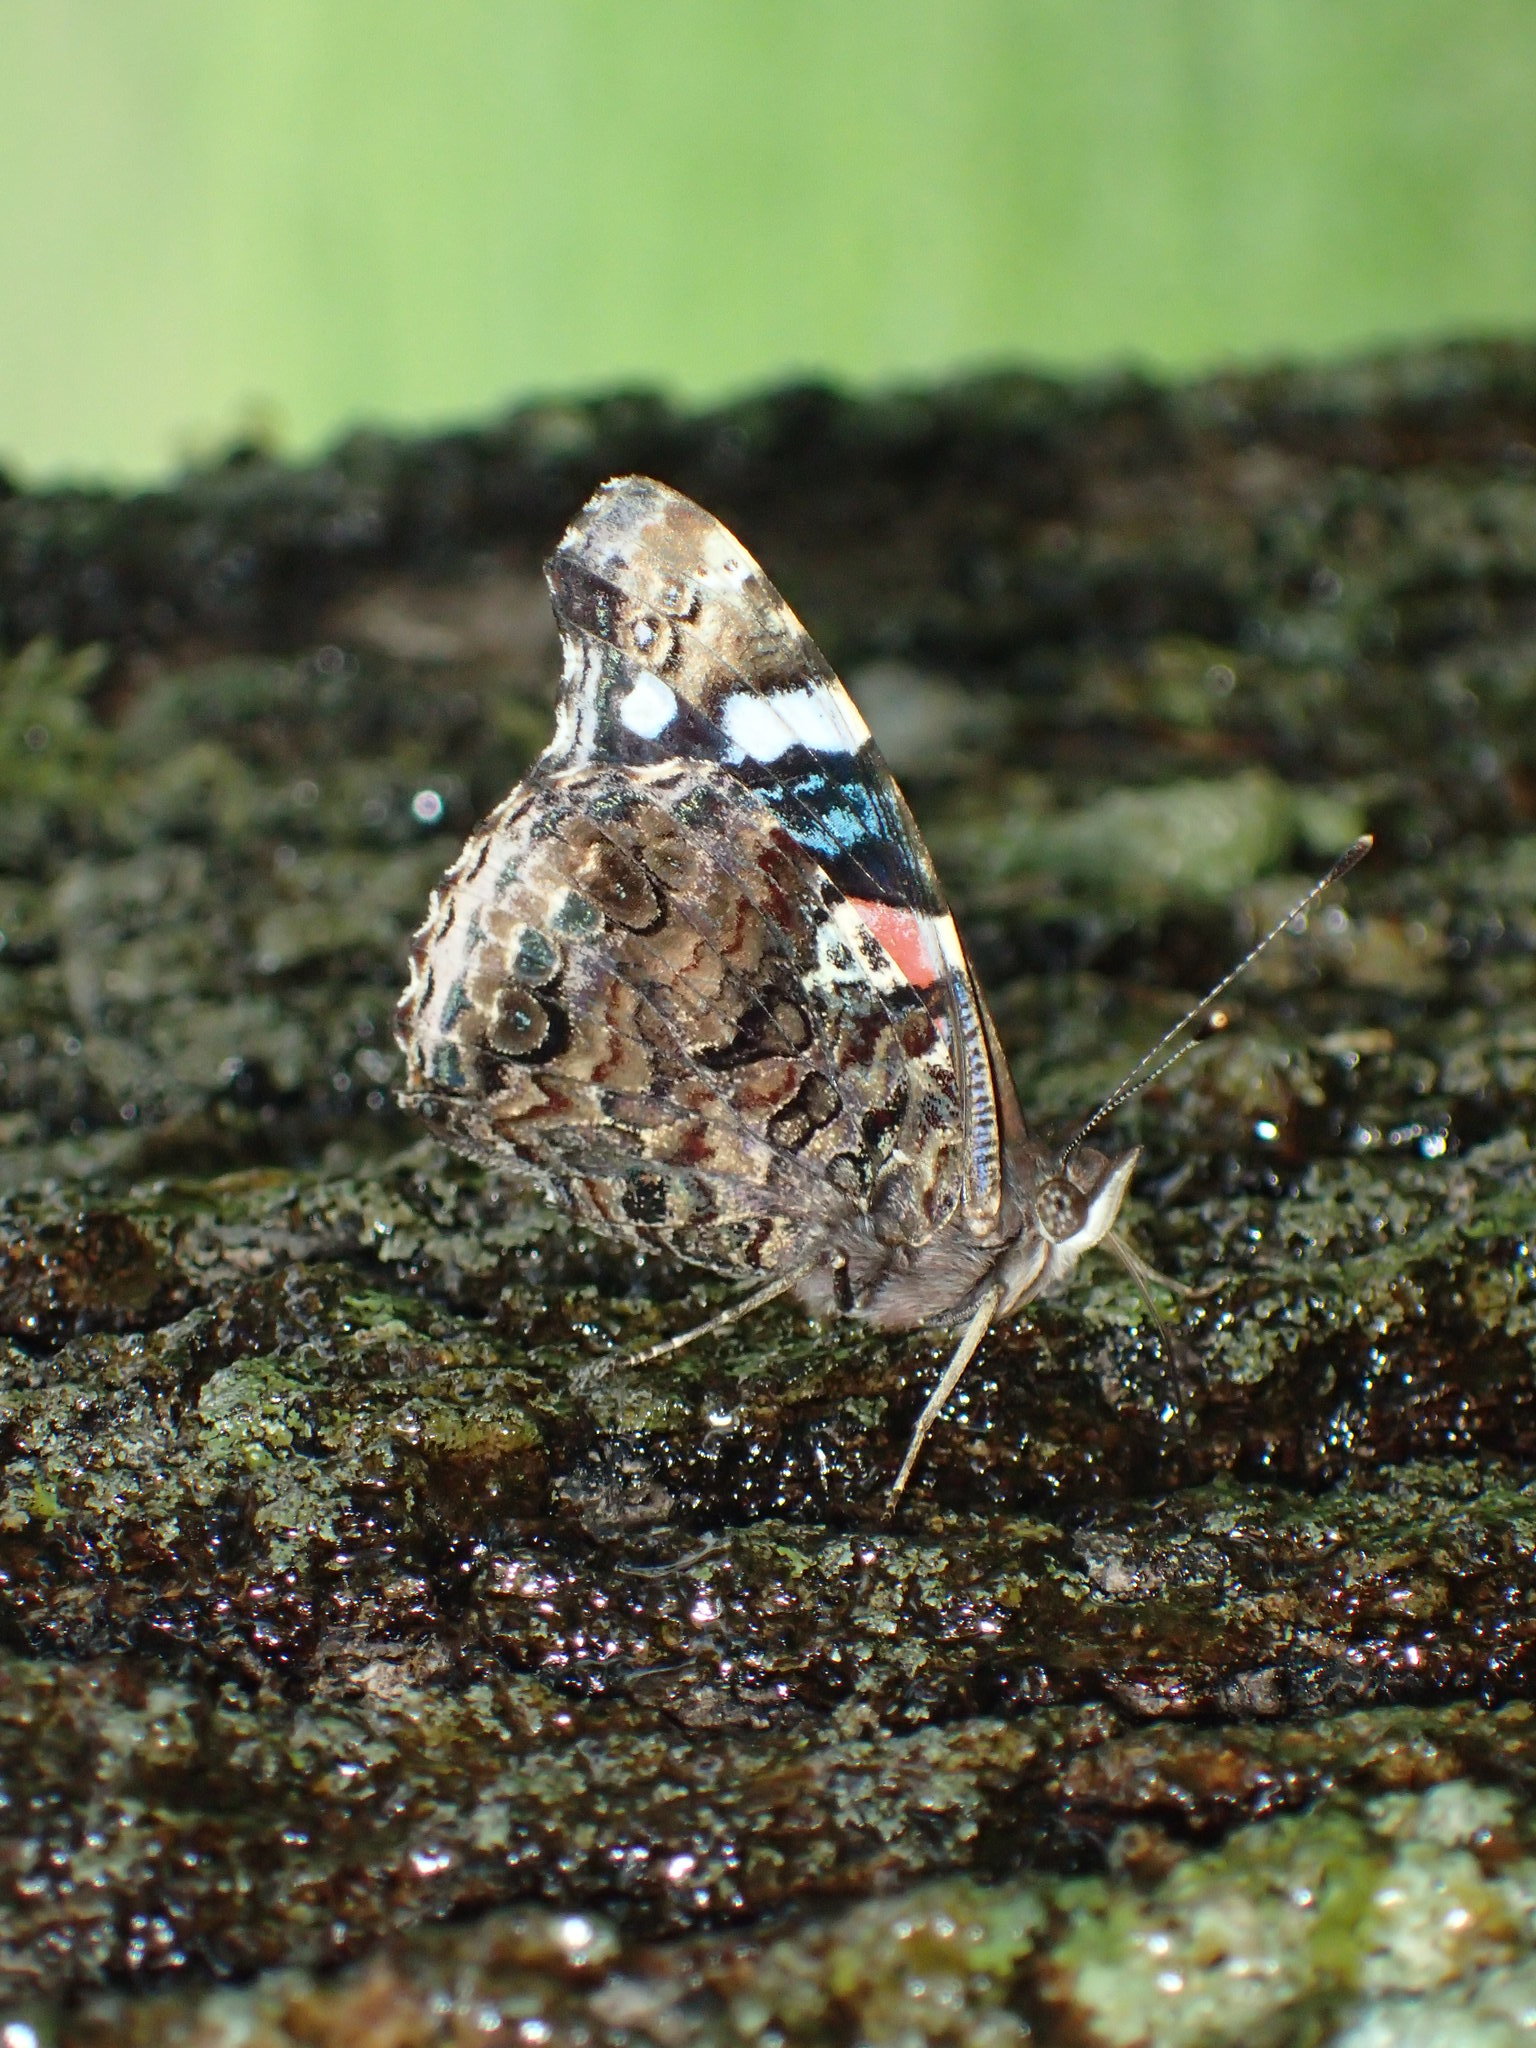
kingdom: Animalia
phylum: Arthropoda
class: Insecta
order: Lepidoptera
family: Nymphalidae
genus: Vanessa
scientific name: Vanessa atalanta
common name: Red admiral
